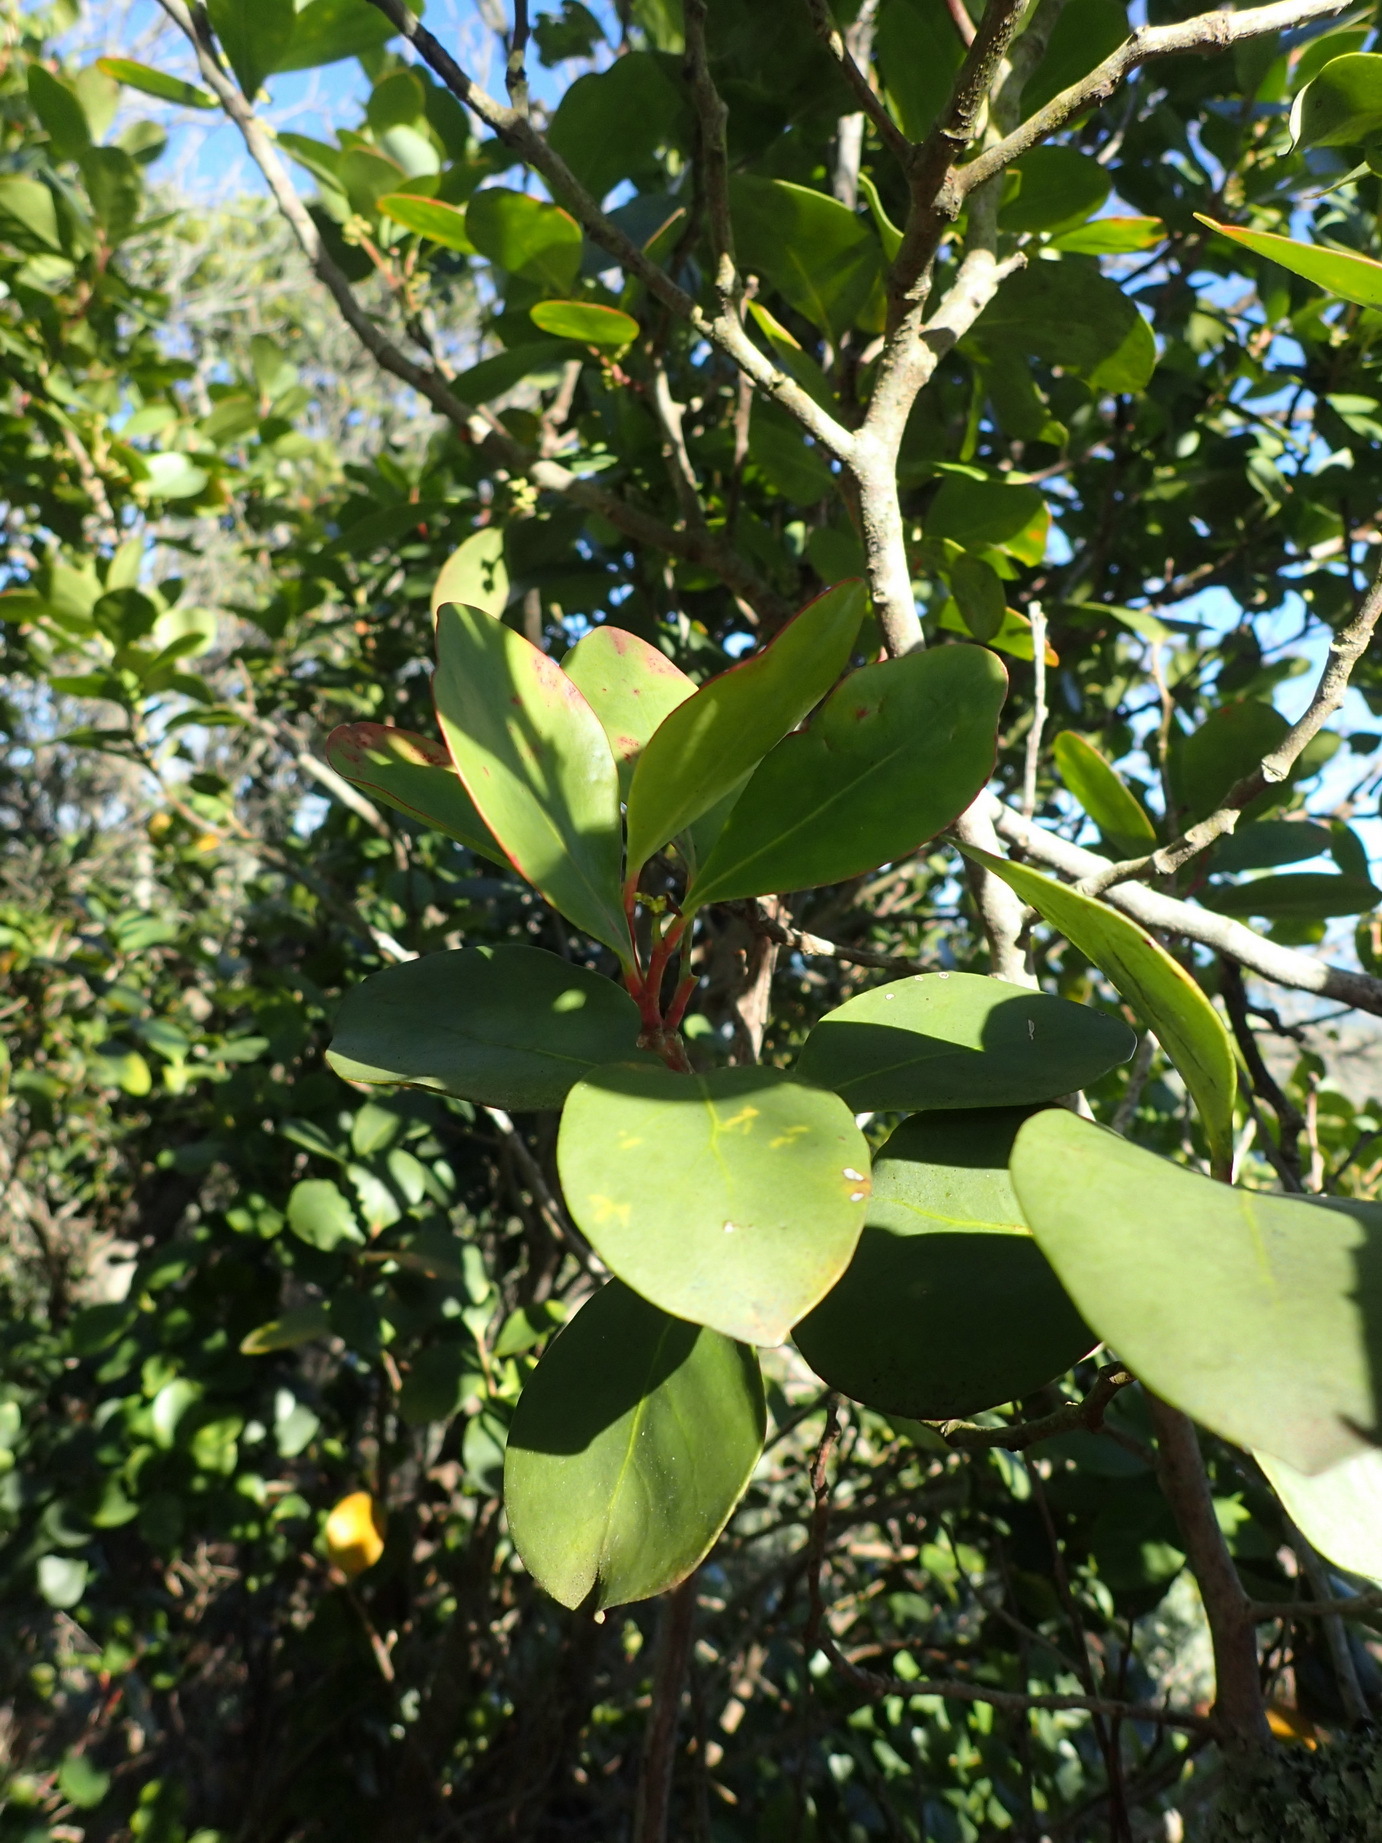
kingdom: Plantae
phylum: Tracheophyta
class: Magnoliopsida
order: Celastrales
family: Celastraceae
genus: Pterocelastrus
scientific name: Pterocelastrus tricuspidatus
